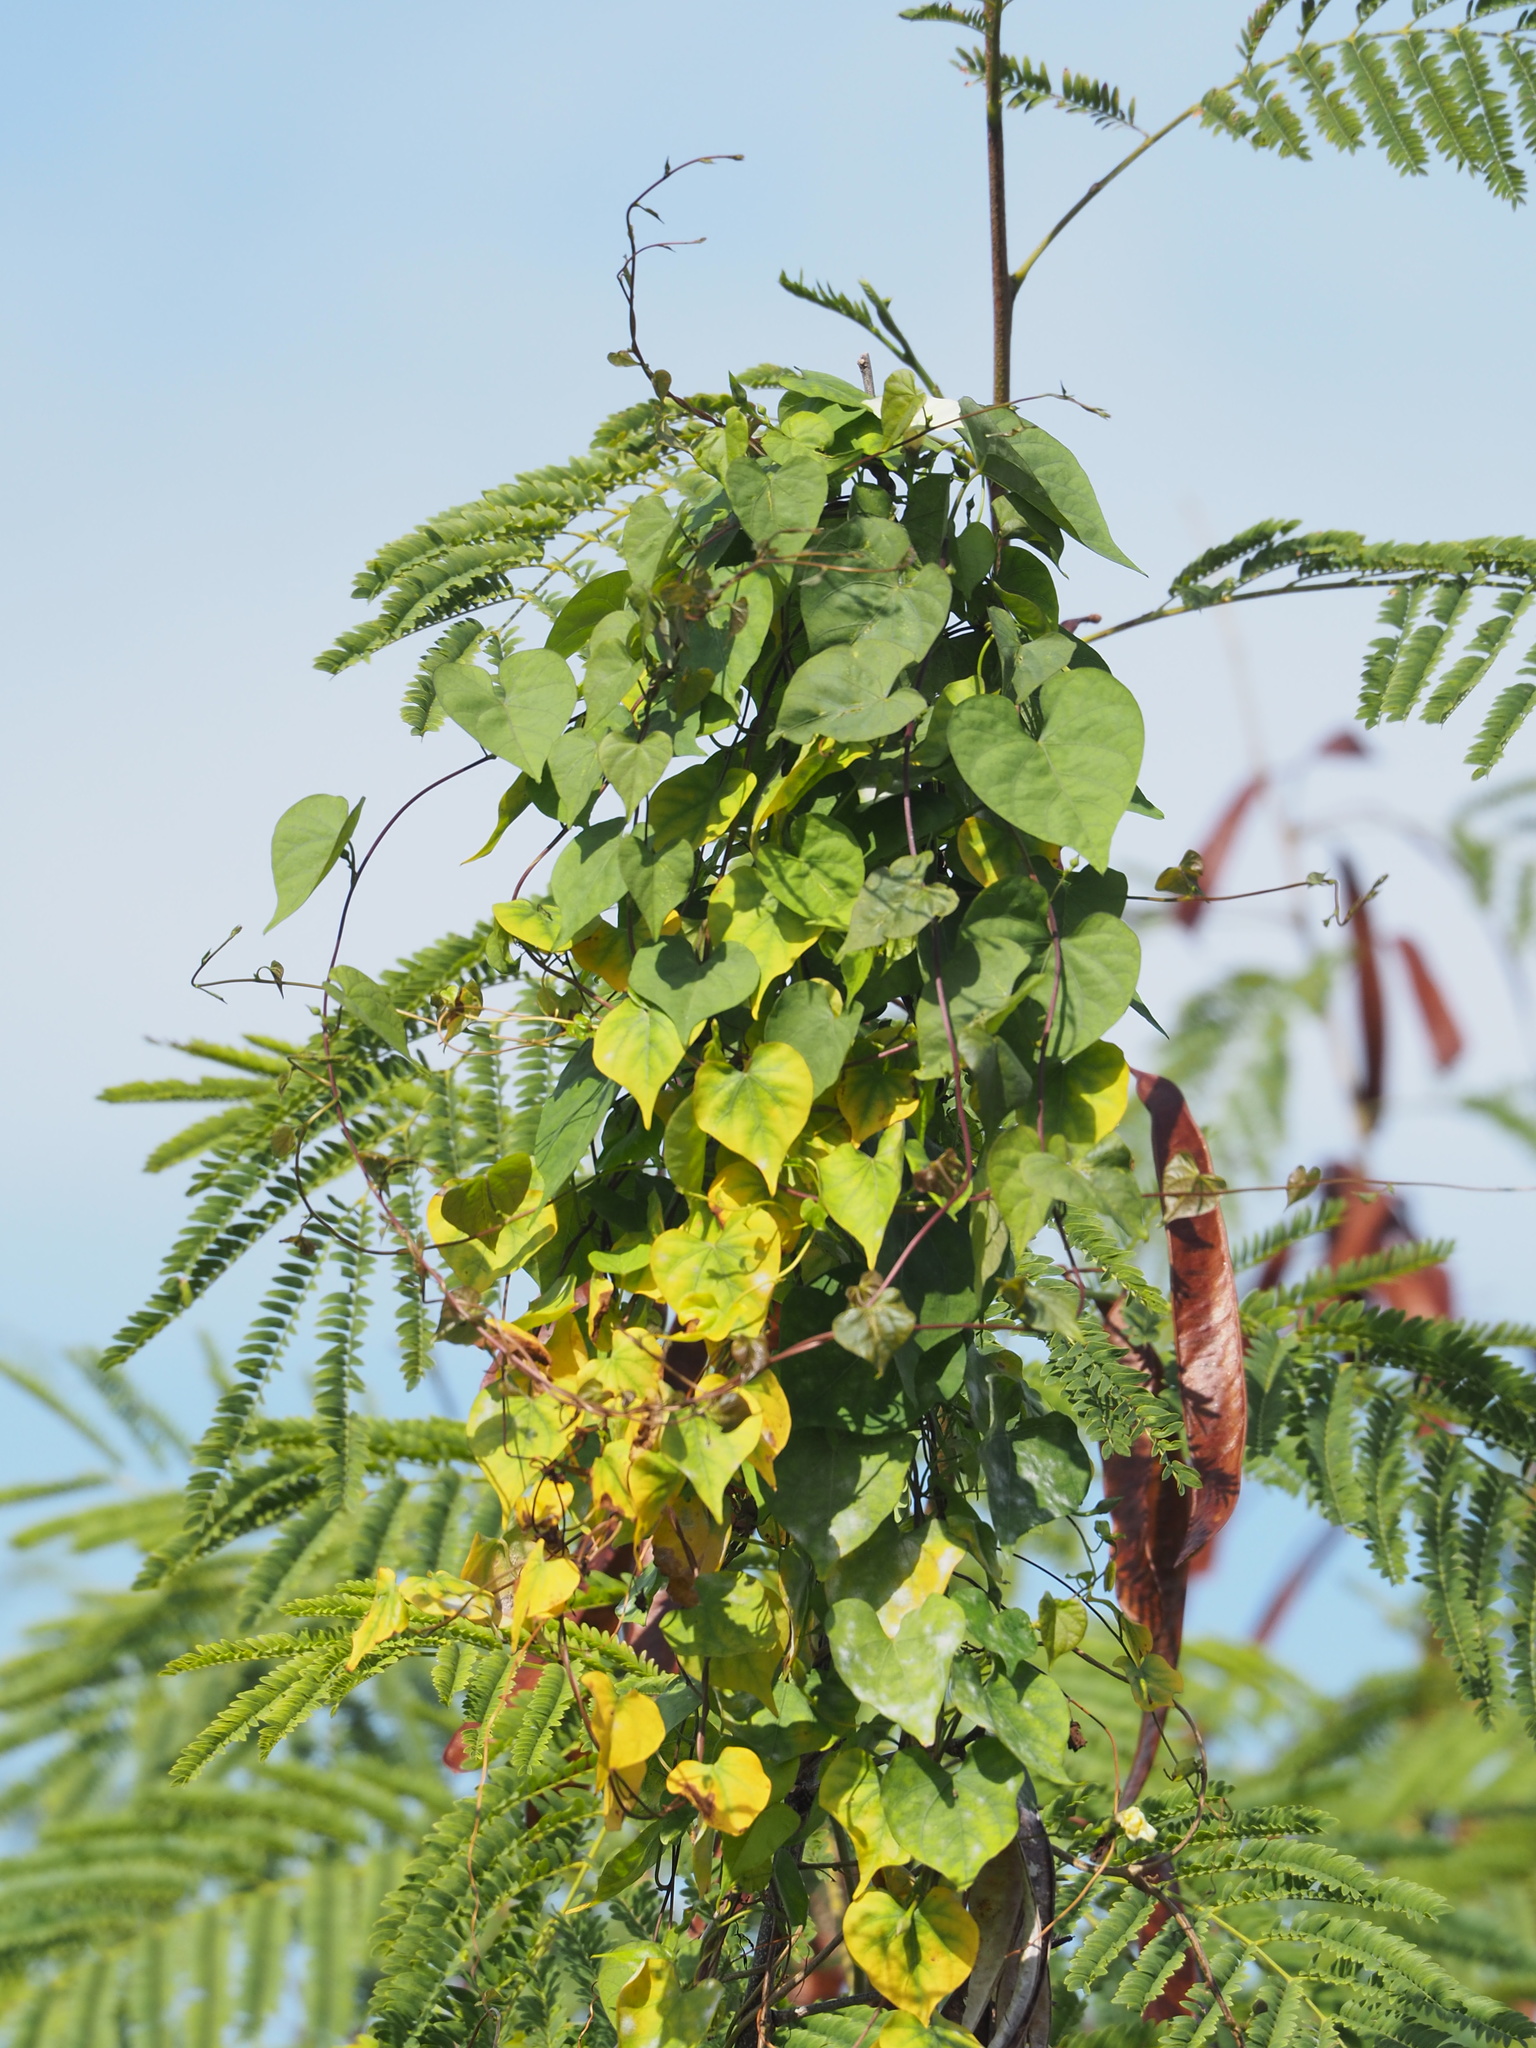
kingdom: Plantae
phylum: Tracheophyta
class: Magnoliopsida
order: Solanales
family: Convolvulaceae
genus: Ipomoea
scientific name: Ipomoea obscura
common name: Obscure morning-glory
